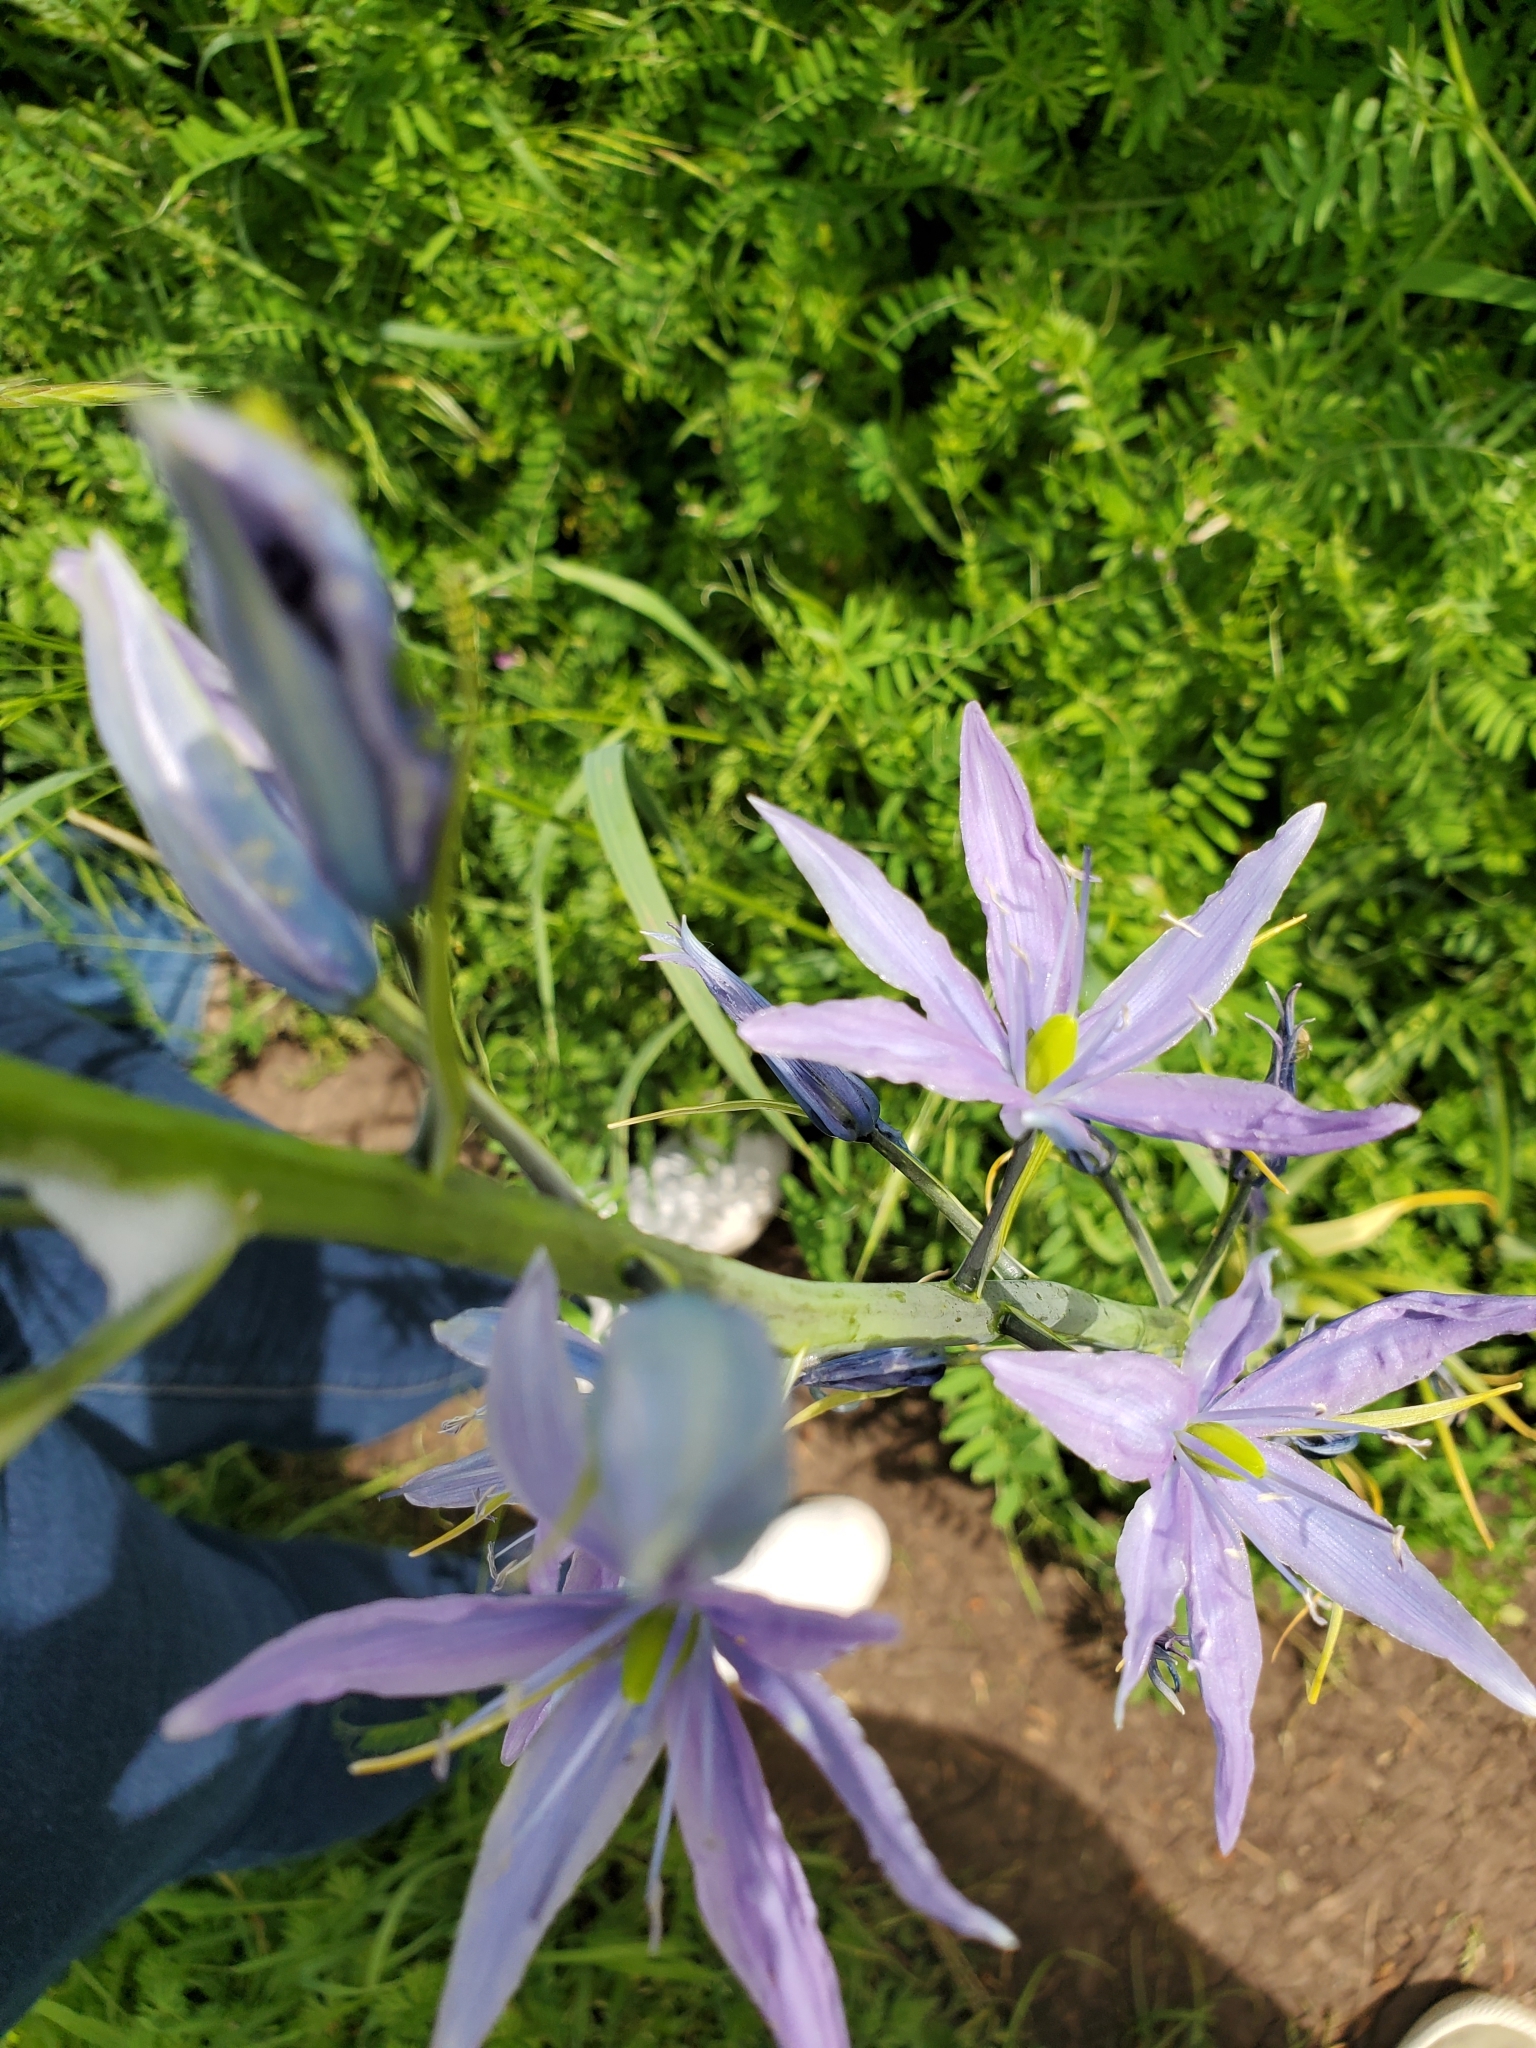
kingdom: Plantae
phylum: Tracheophyta
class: Liliopsida
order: Asparagales
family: Asparagaceae
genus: Camassia
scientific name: Camassia leichtlinii
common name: Leichtlin's camas
